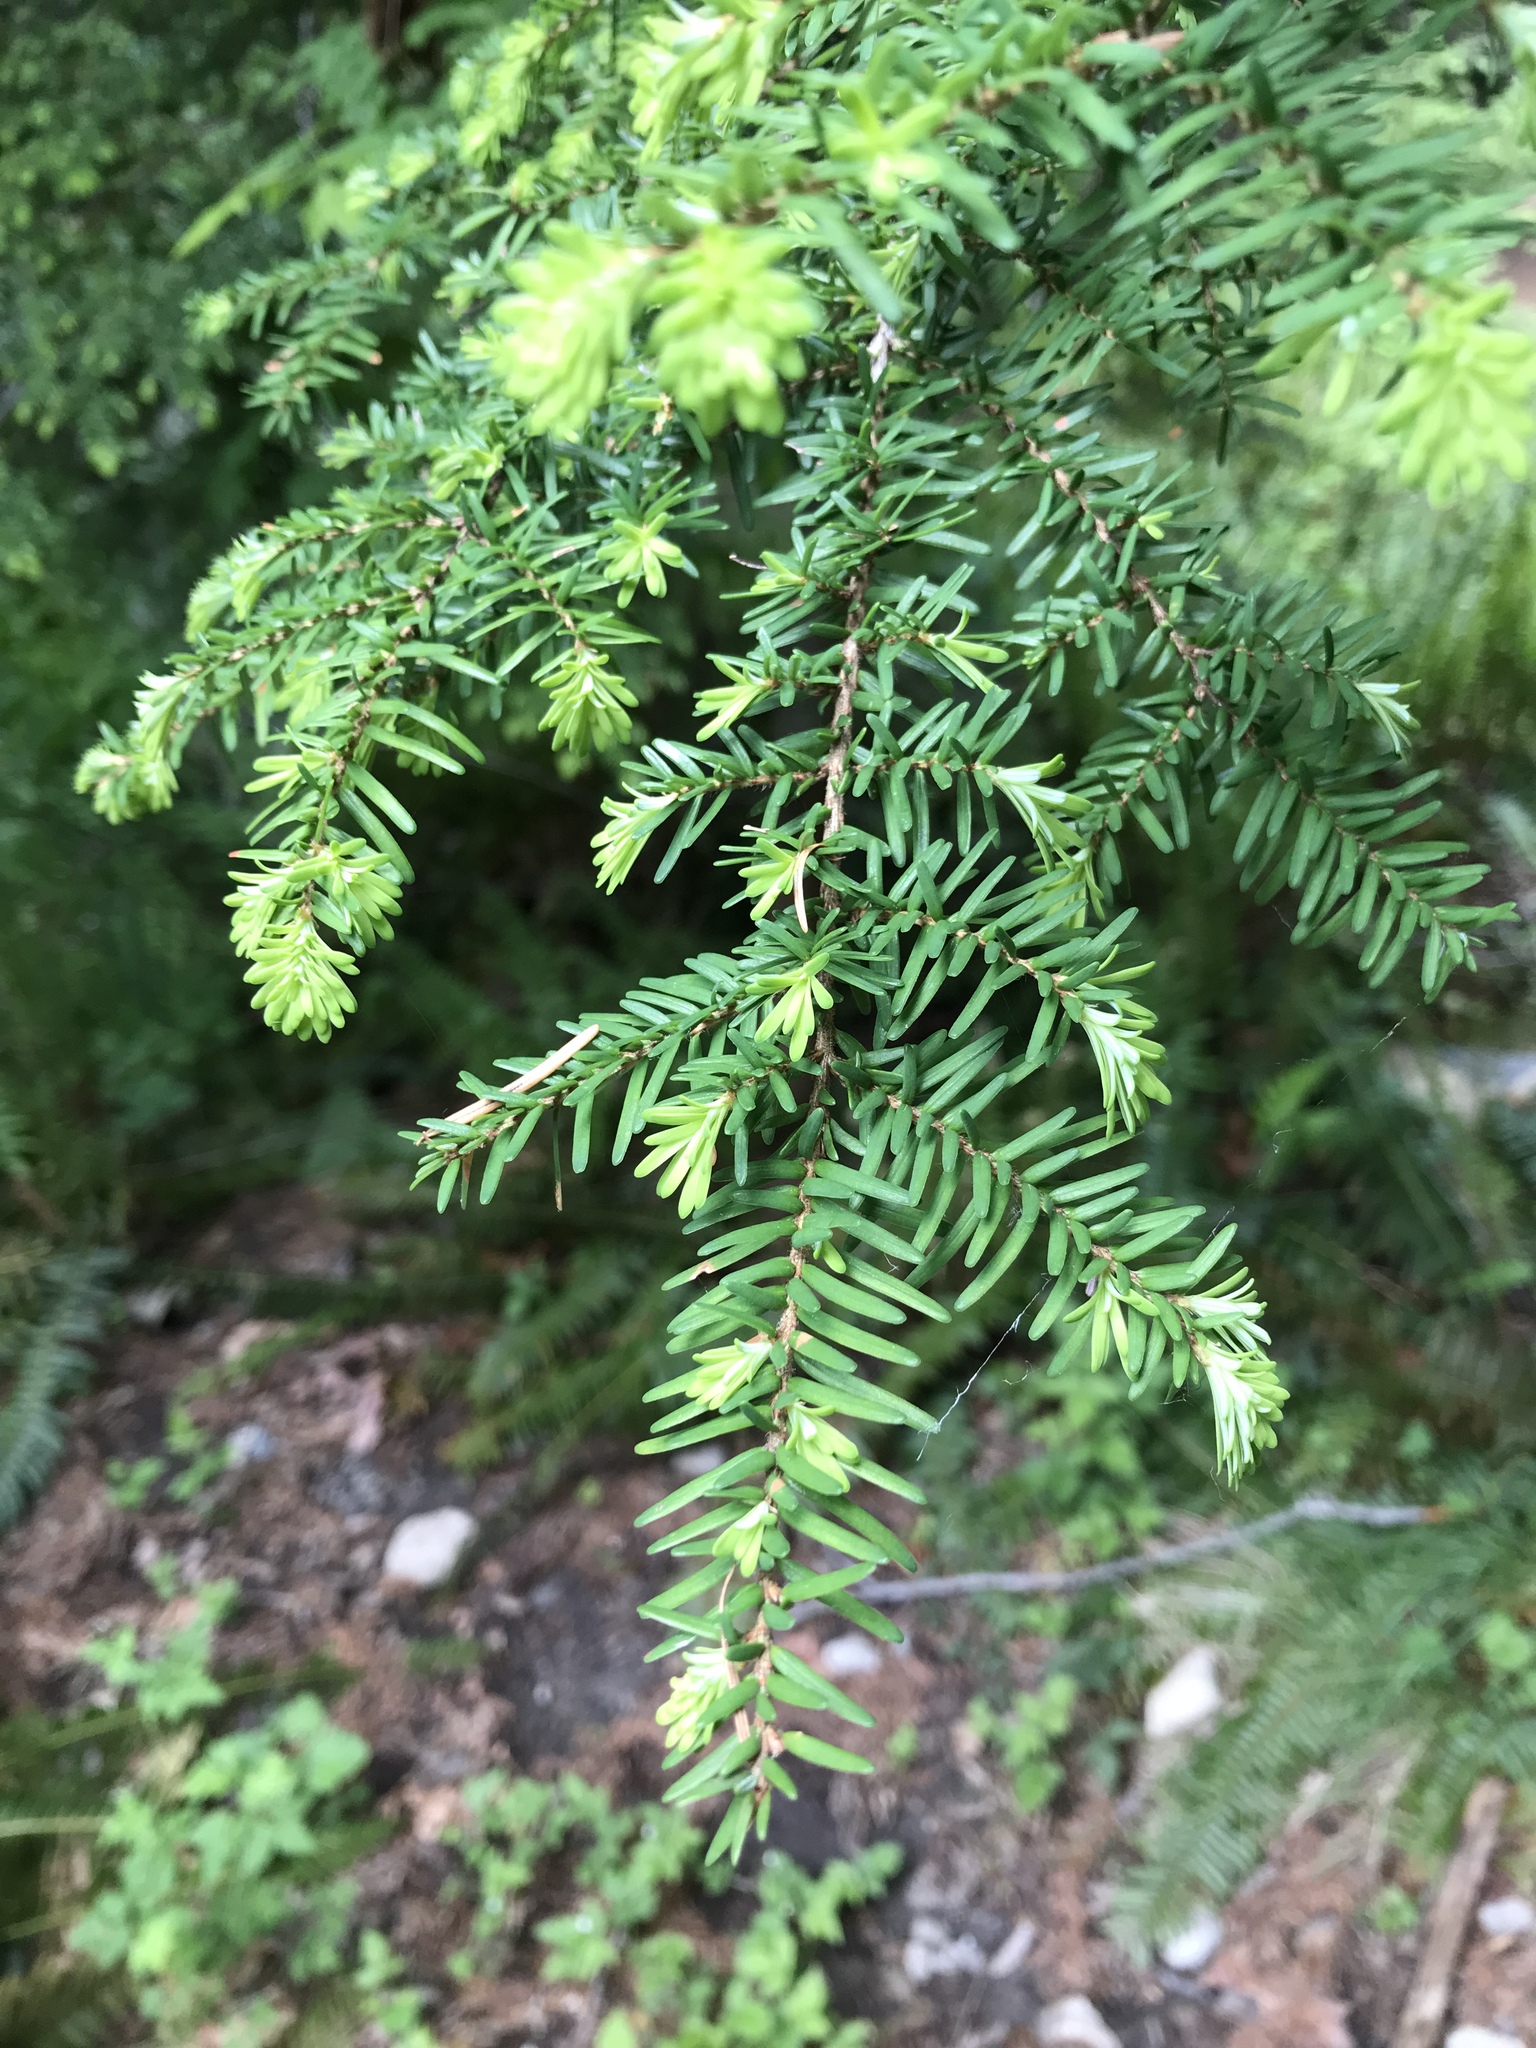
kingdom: Plantae
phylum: Tracheophyta
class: Pinopsida
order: Pinales
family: Pinaceae
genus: Tsuga
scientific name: Tsuga heterophylla
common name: Western hemlock
